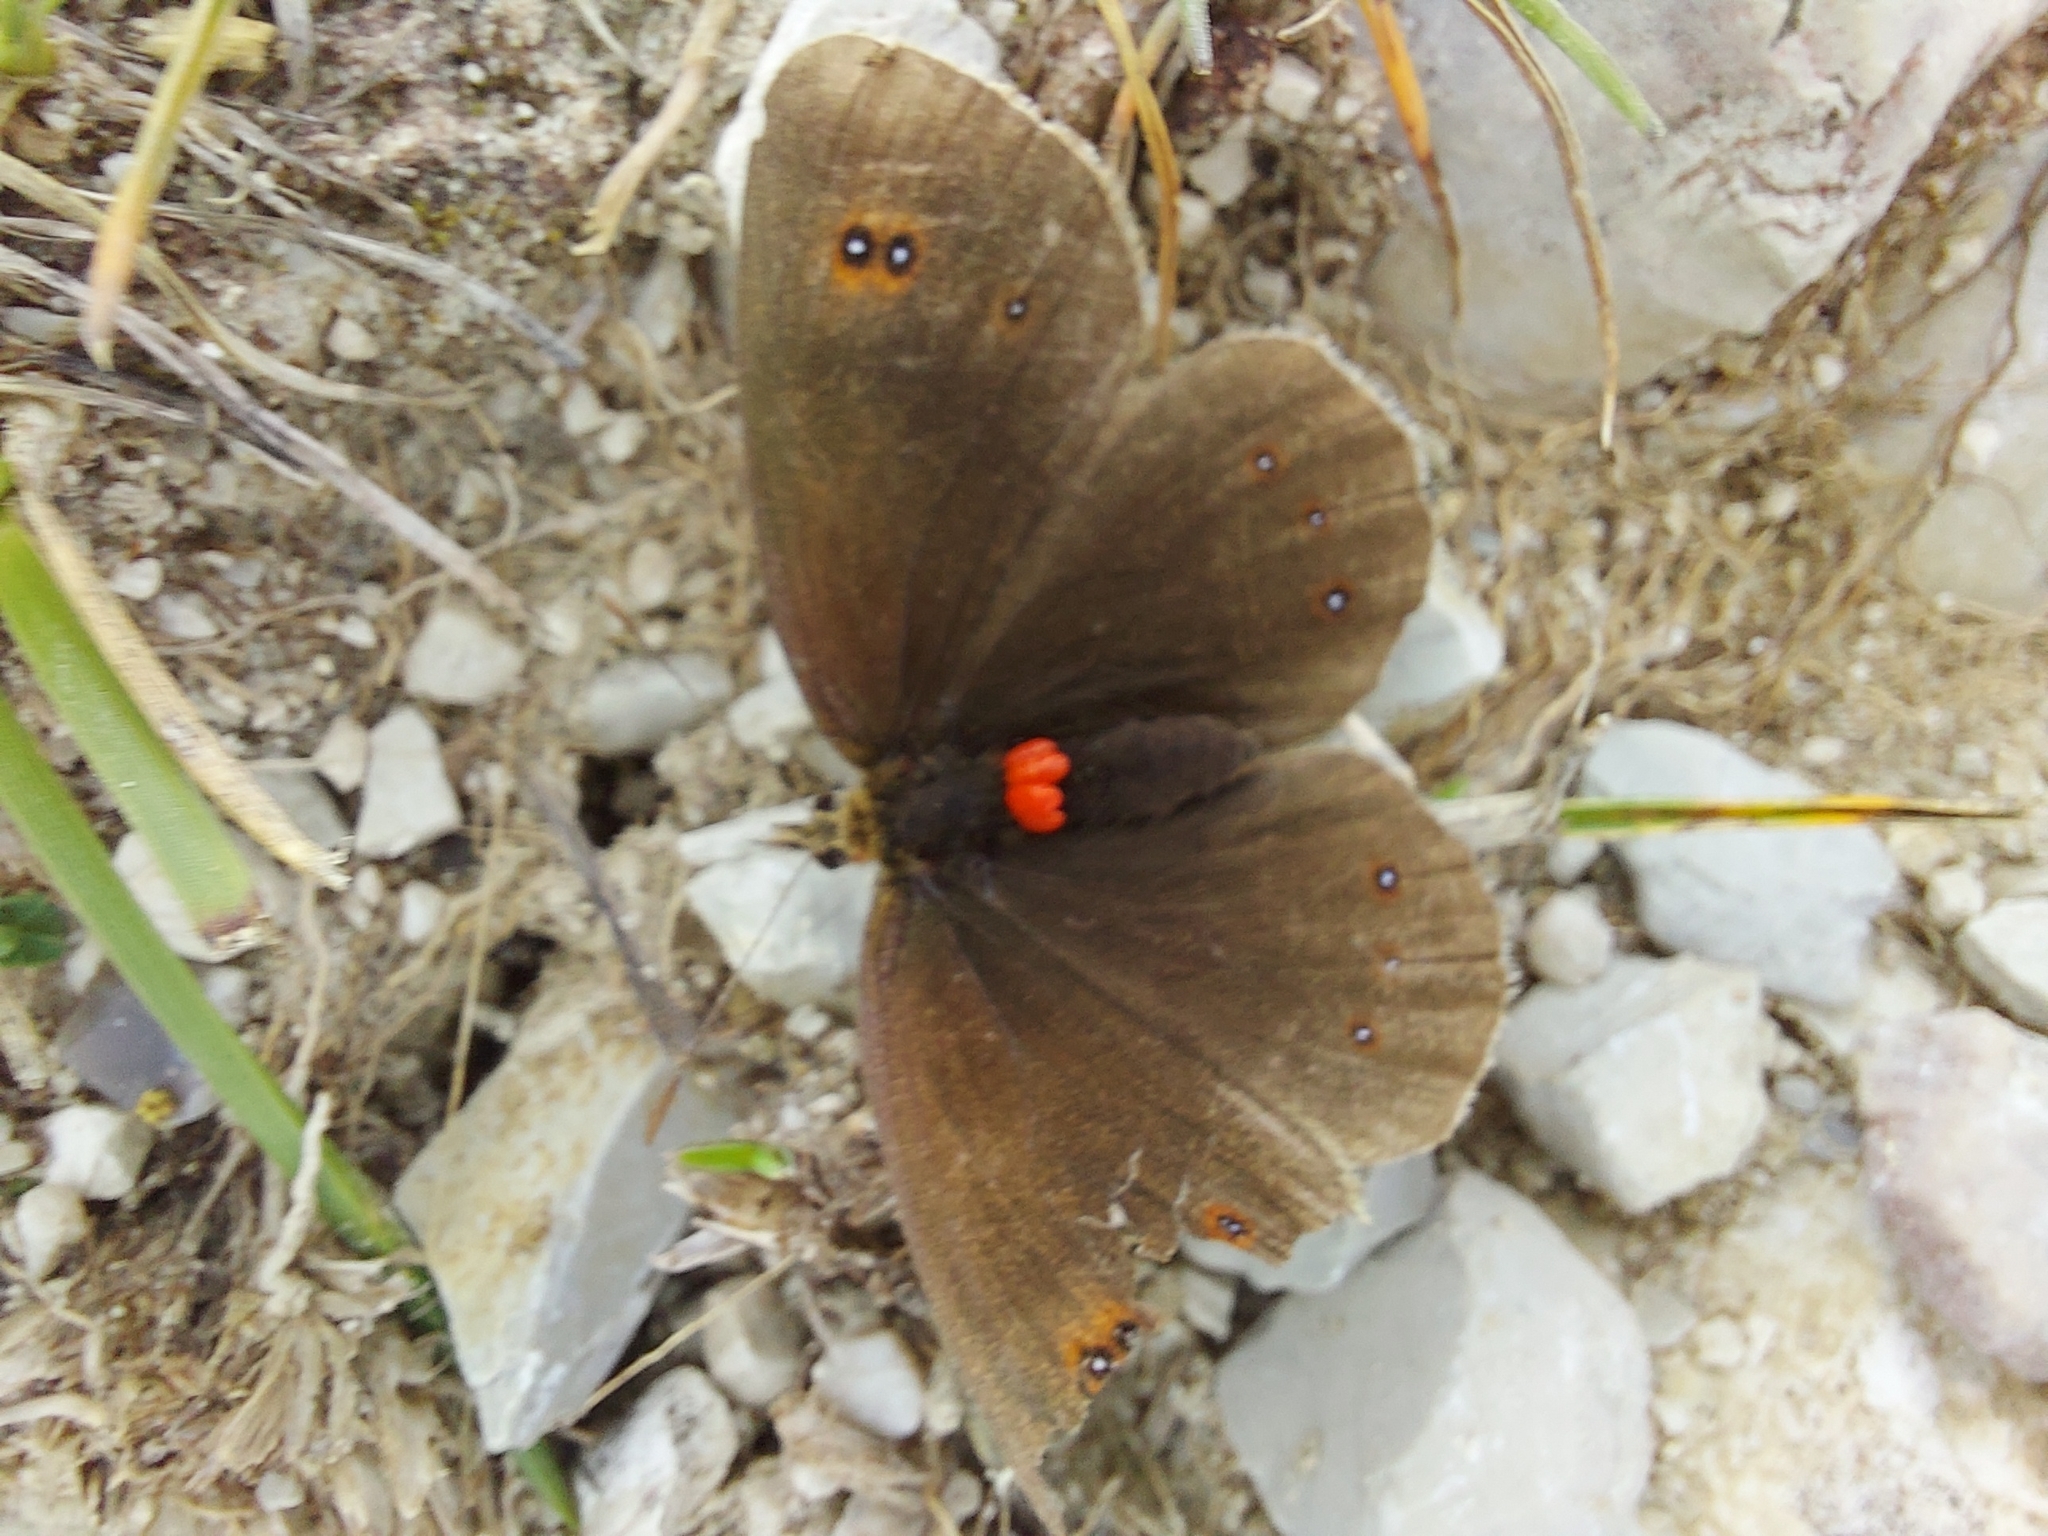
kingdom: Animalia
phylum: Arthropoda
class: Insecta
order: Lepidoptera
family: Nymphalidae
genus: Erebia
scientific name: Erebia aethiops
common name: Scotch argus
